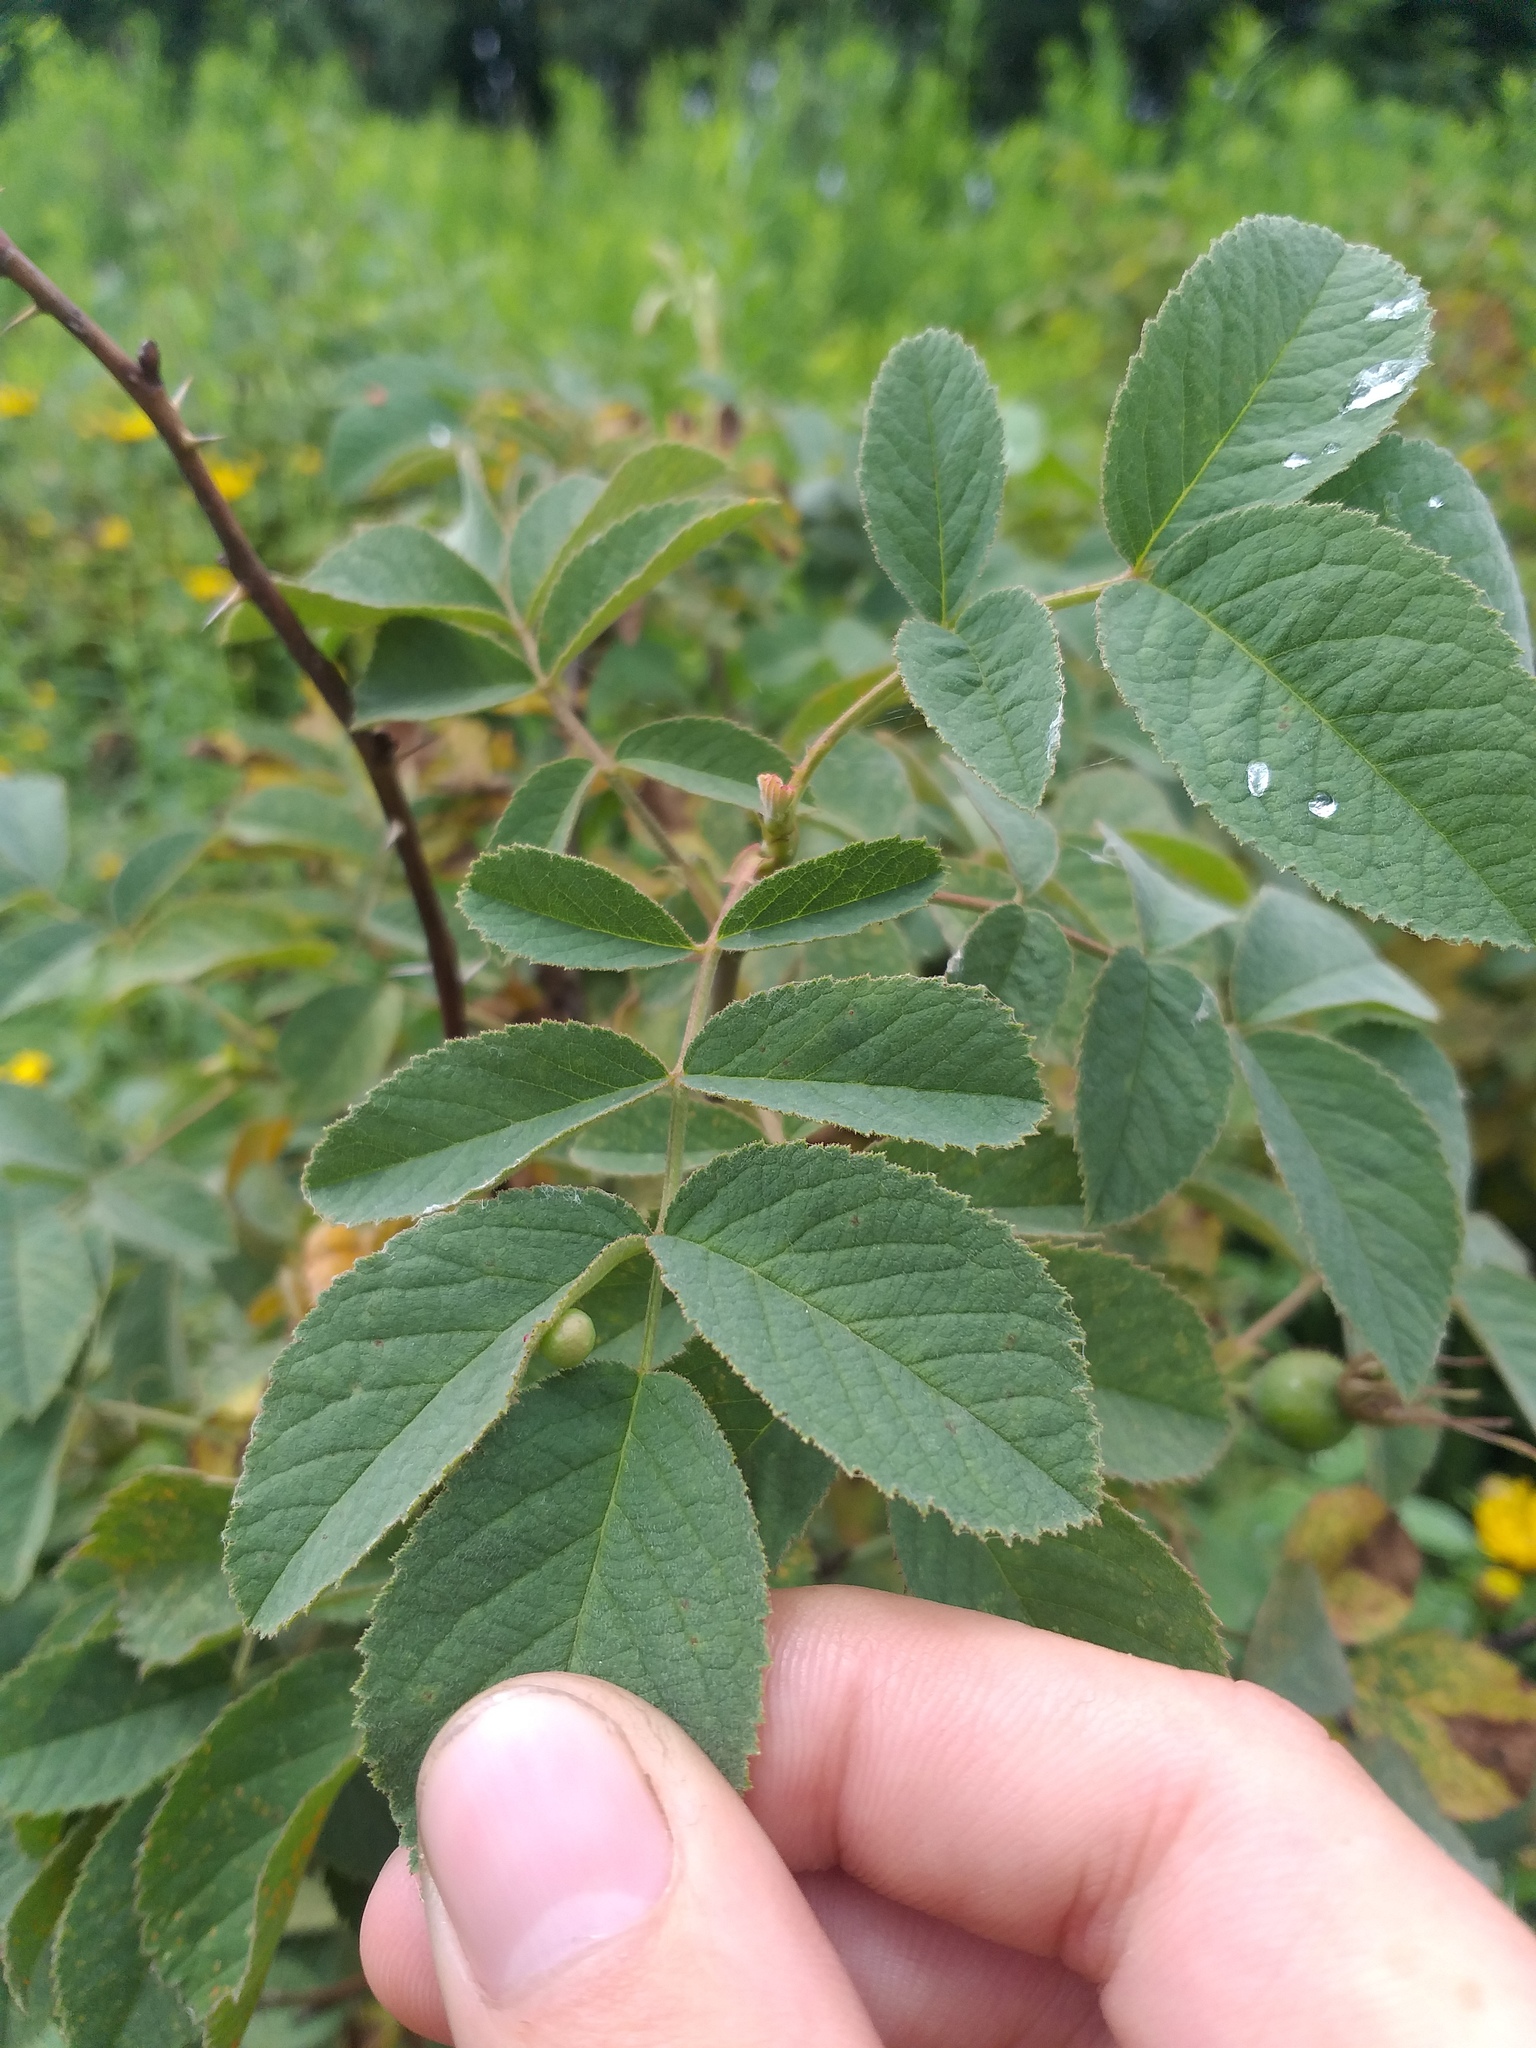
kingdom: Plantae
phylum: Tracheophyta
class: Magnoliopsida
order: Rosales
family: Rosaceae
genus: Rosa
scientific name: Rosa villosa
